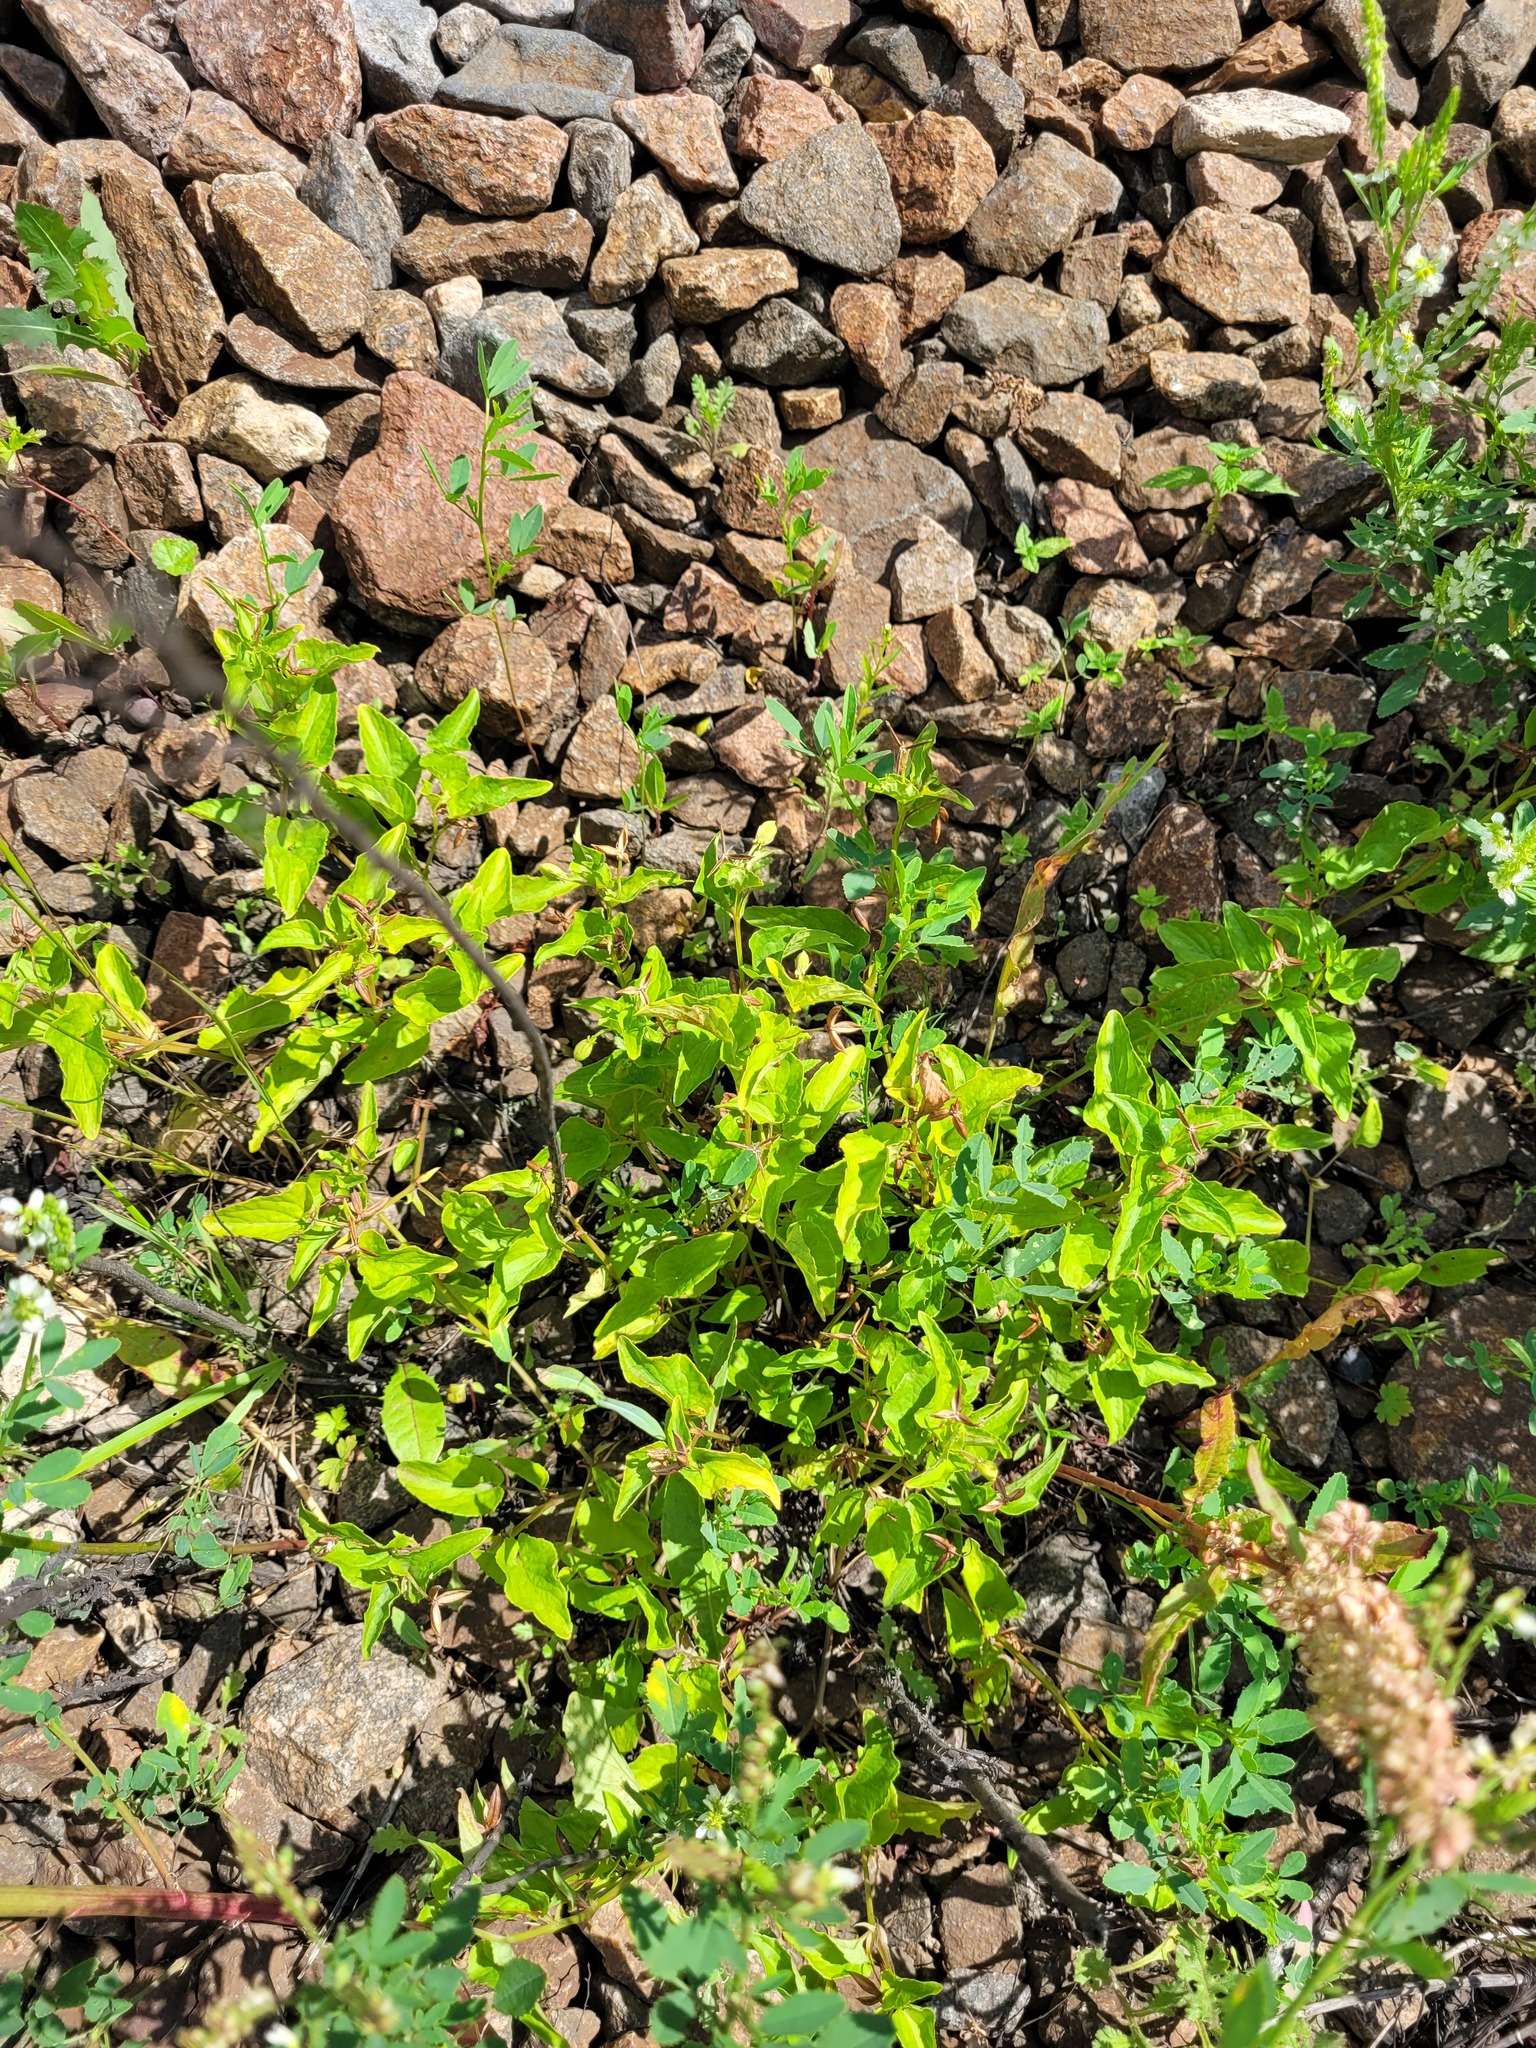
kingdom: Plantae
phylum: Tracheophyta
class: Magnoliopsida
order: Malpighiales
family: Violaceae
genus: Viola
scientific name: Viola canina
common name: Heath dog-violet
